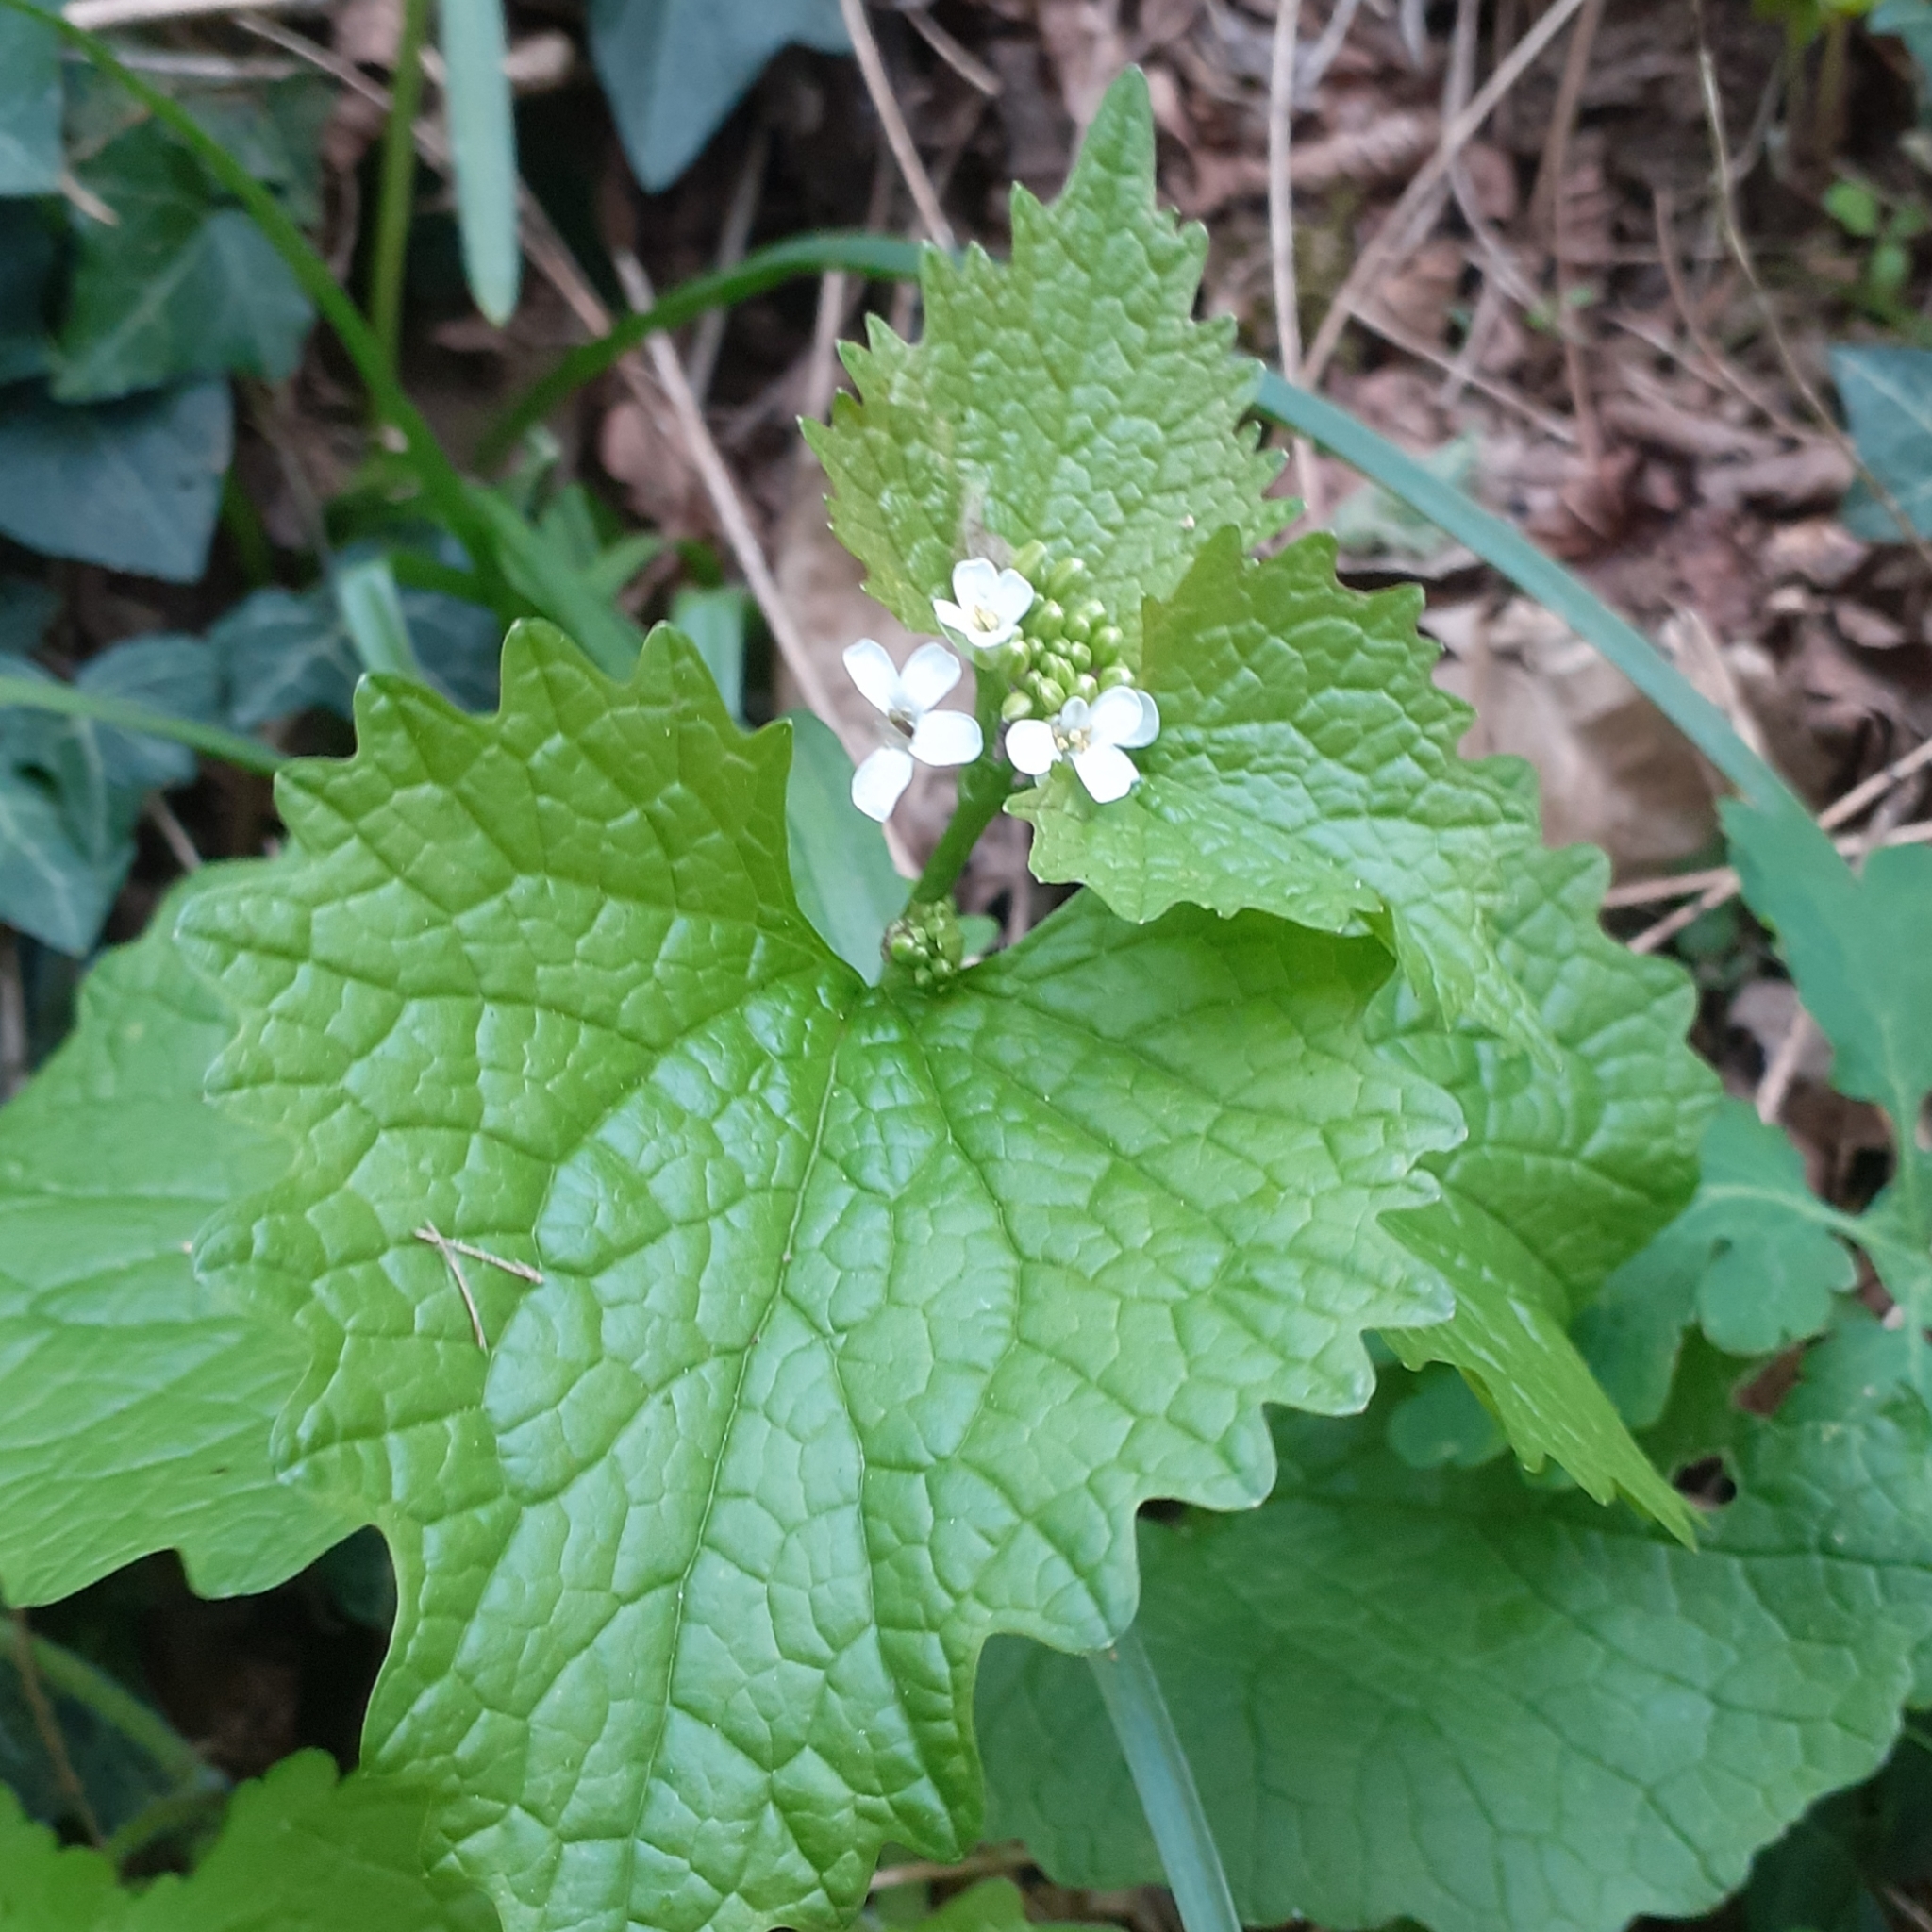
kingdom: Plantae
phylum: Tracheophyta
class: Magnoliopsida
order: Brassicales
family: Brassicaceae
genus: Alliaria
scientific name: Alliaria petiolata
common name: Garlic mustard
